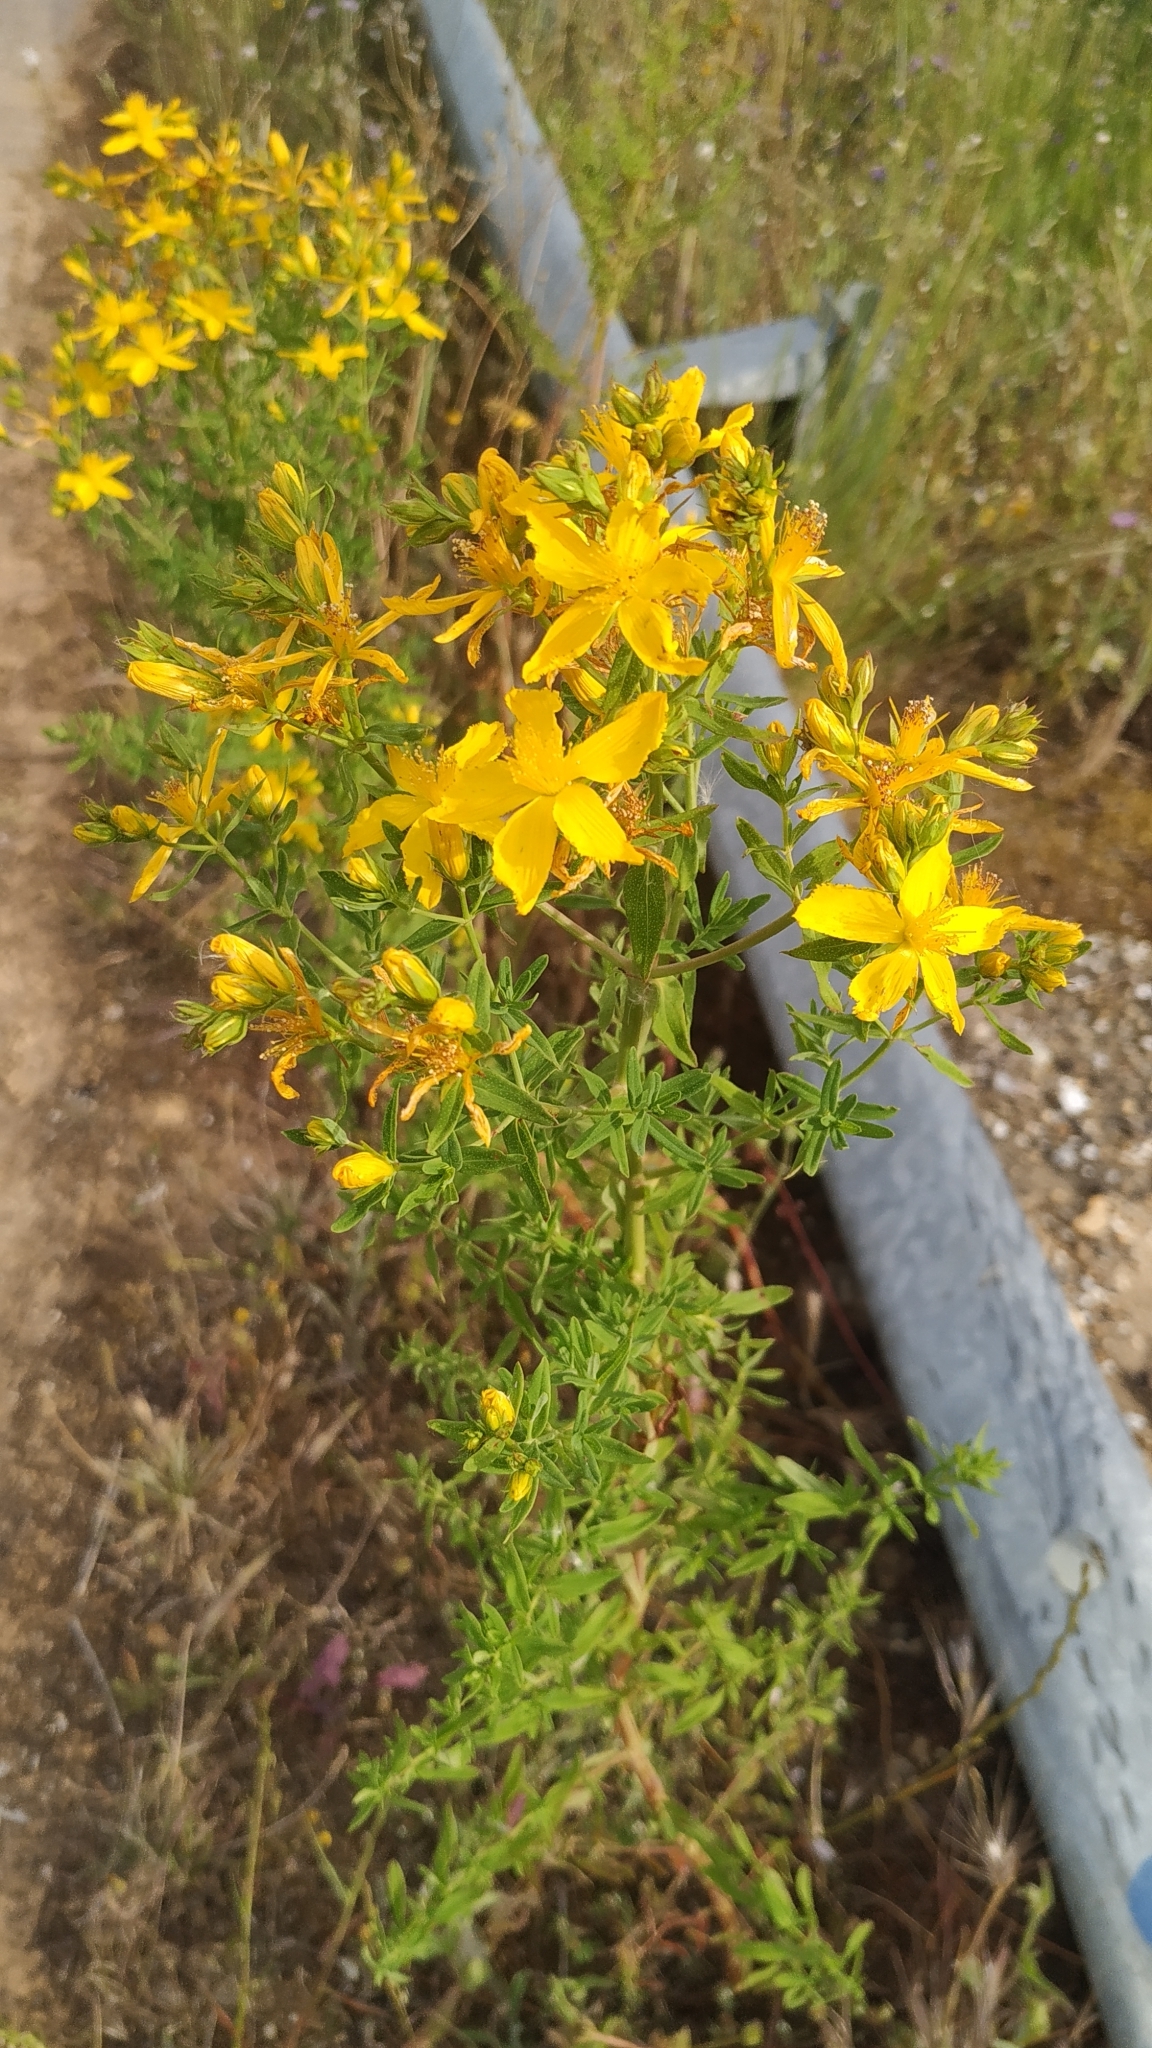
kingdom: Plantae
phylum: Tracheophyta
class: Magnoliopsida
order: Malpighiales
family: Hypericaceae
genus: Hypericum
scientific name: Hypericum perforatum
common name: Common st. johnswort
